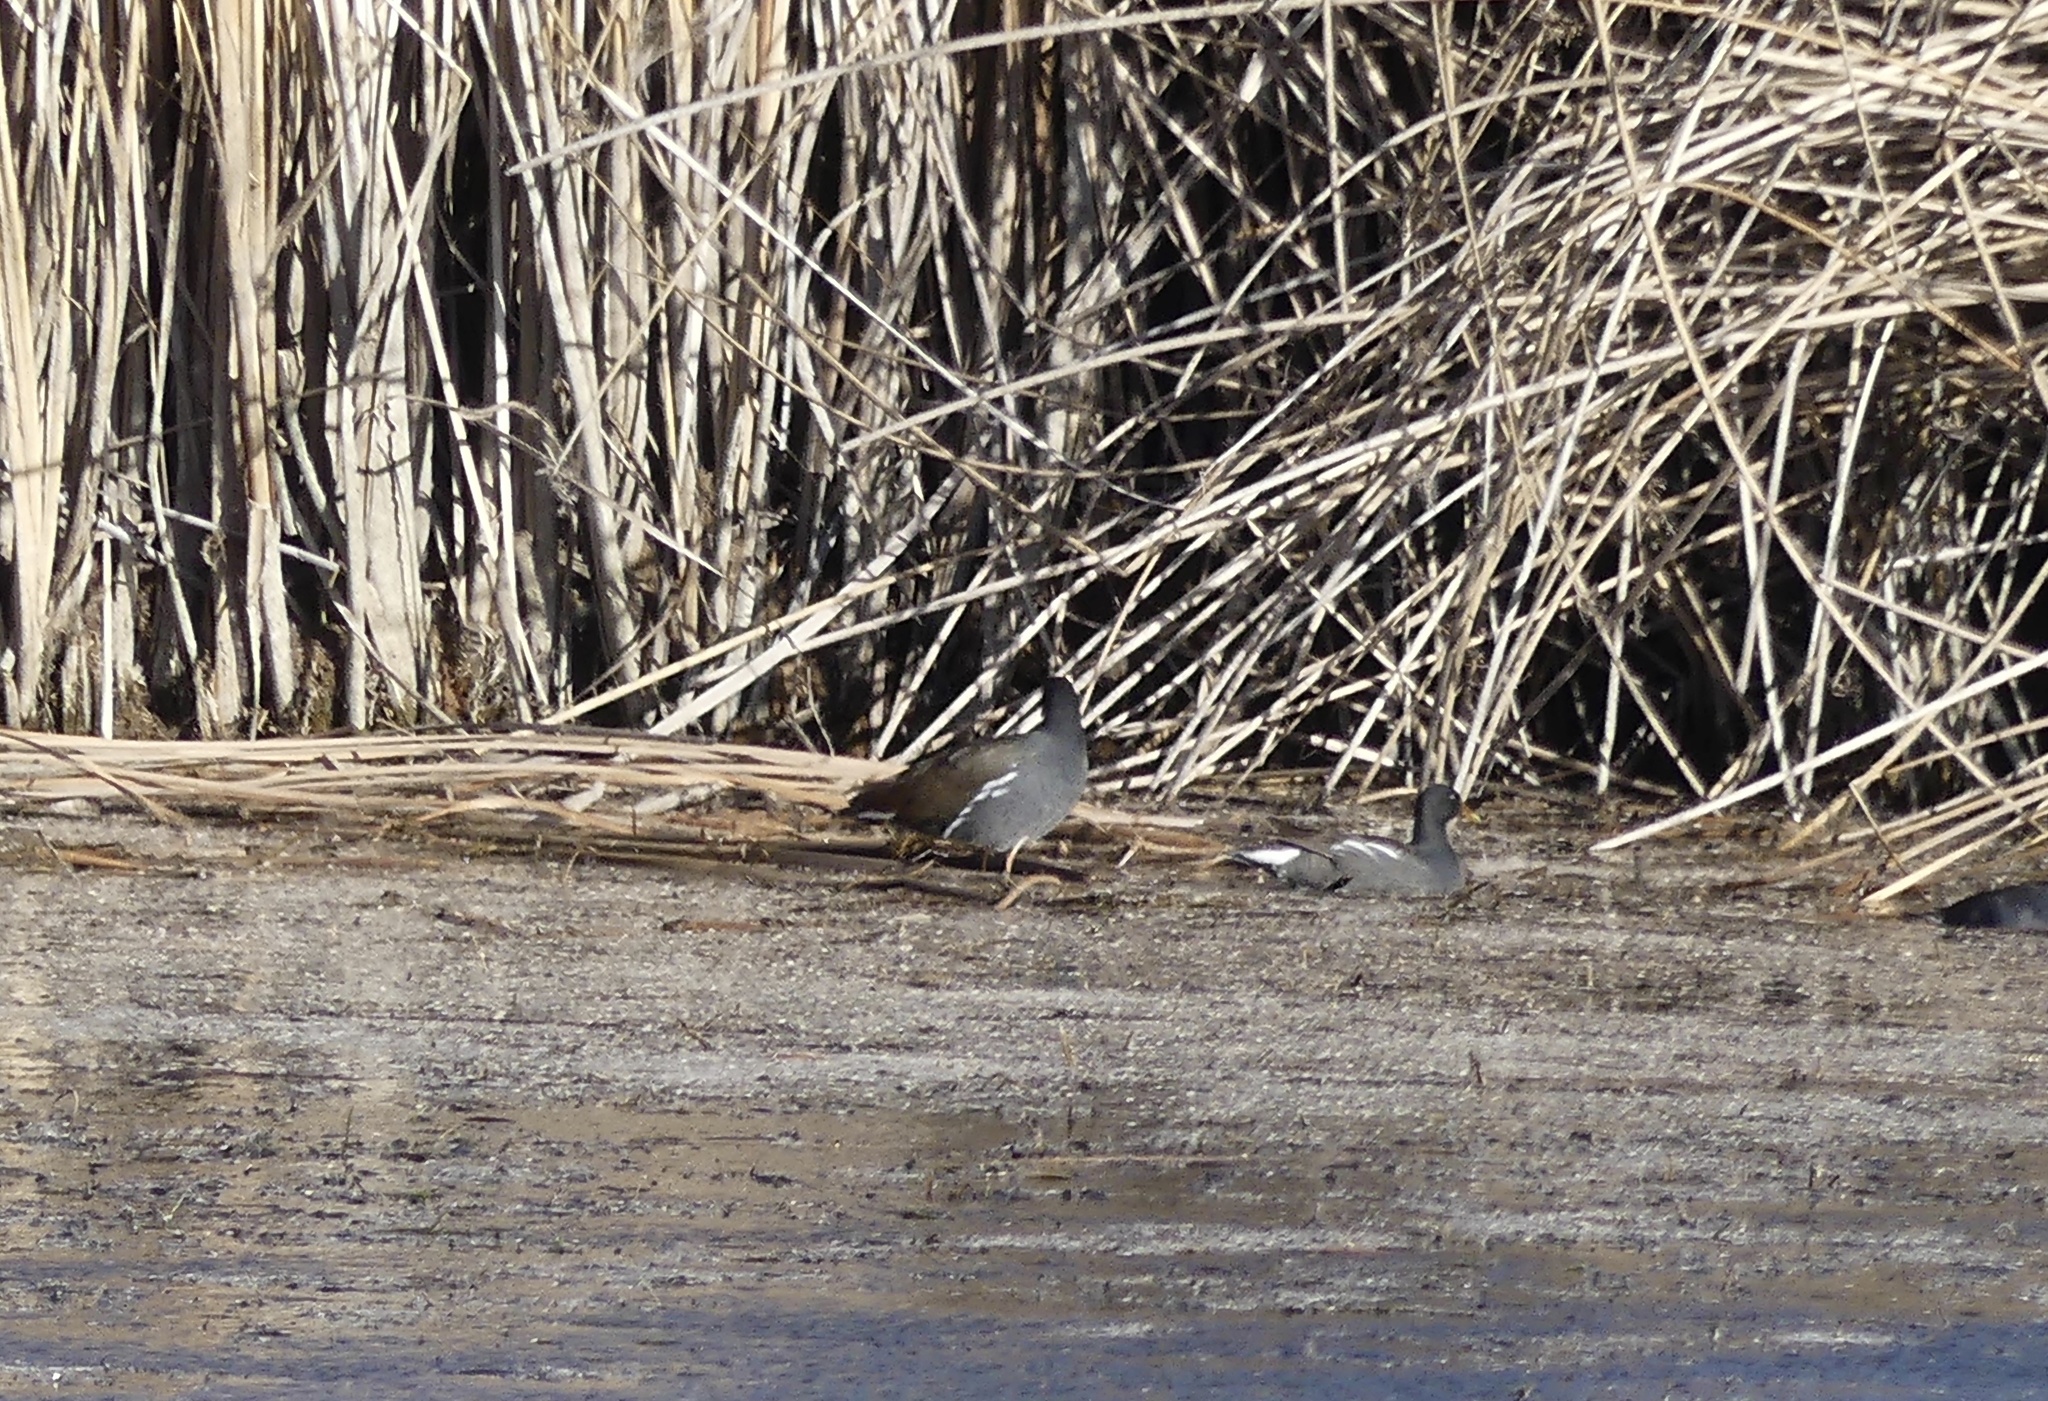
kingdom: Animalia
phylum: Chordata
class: Aves
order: Gruiformes
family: Rallidae
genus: Gallinula
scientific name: Gallinula chloropus
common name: Common moorhen
